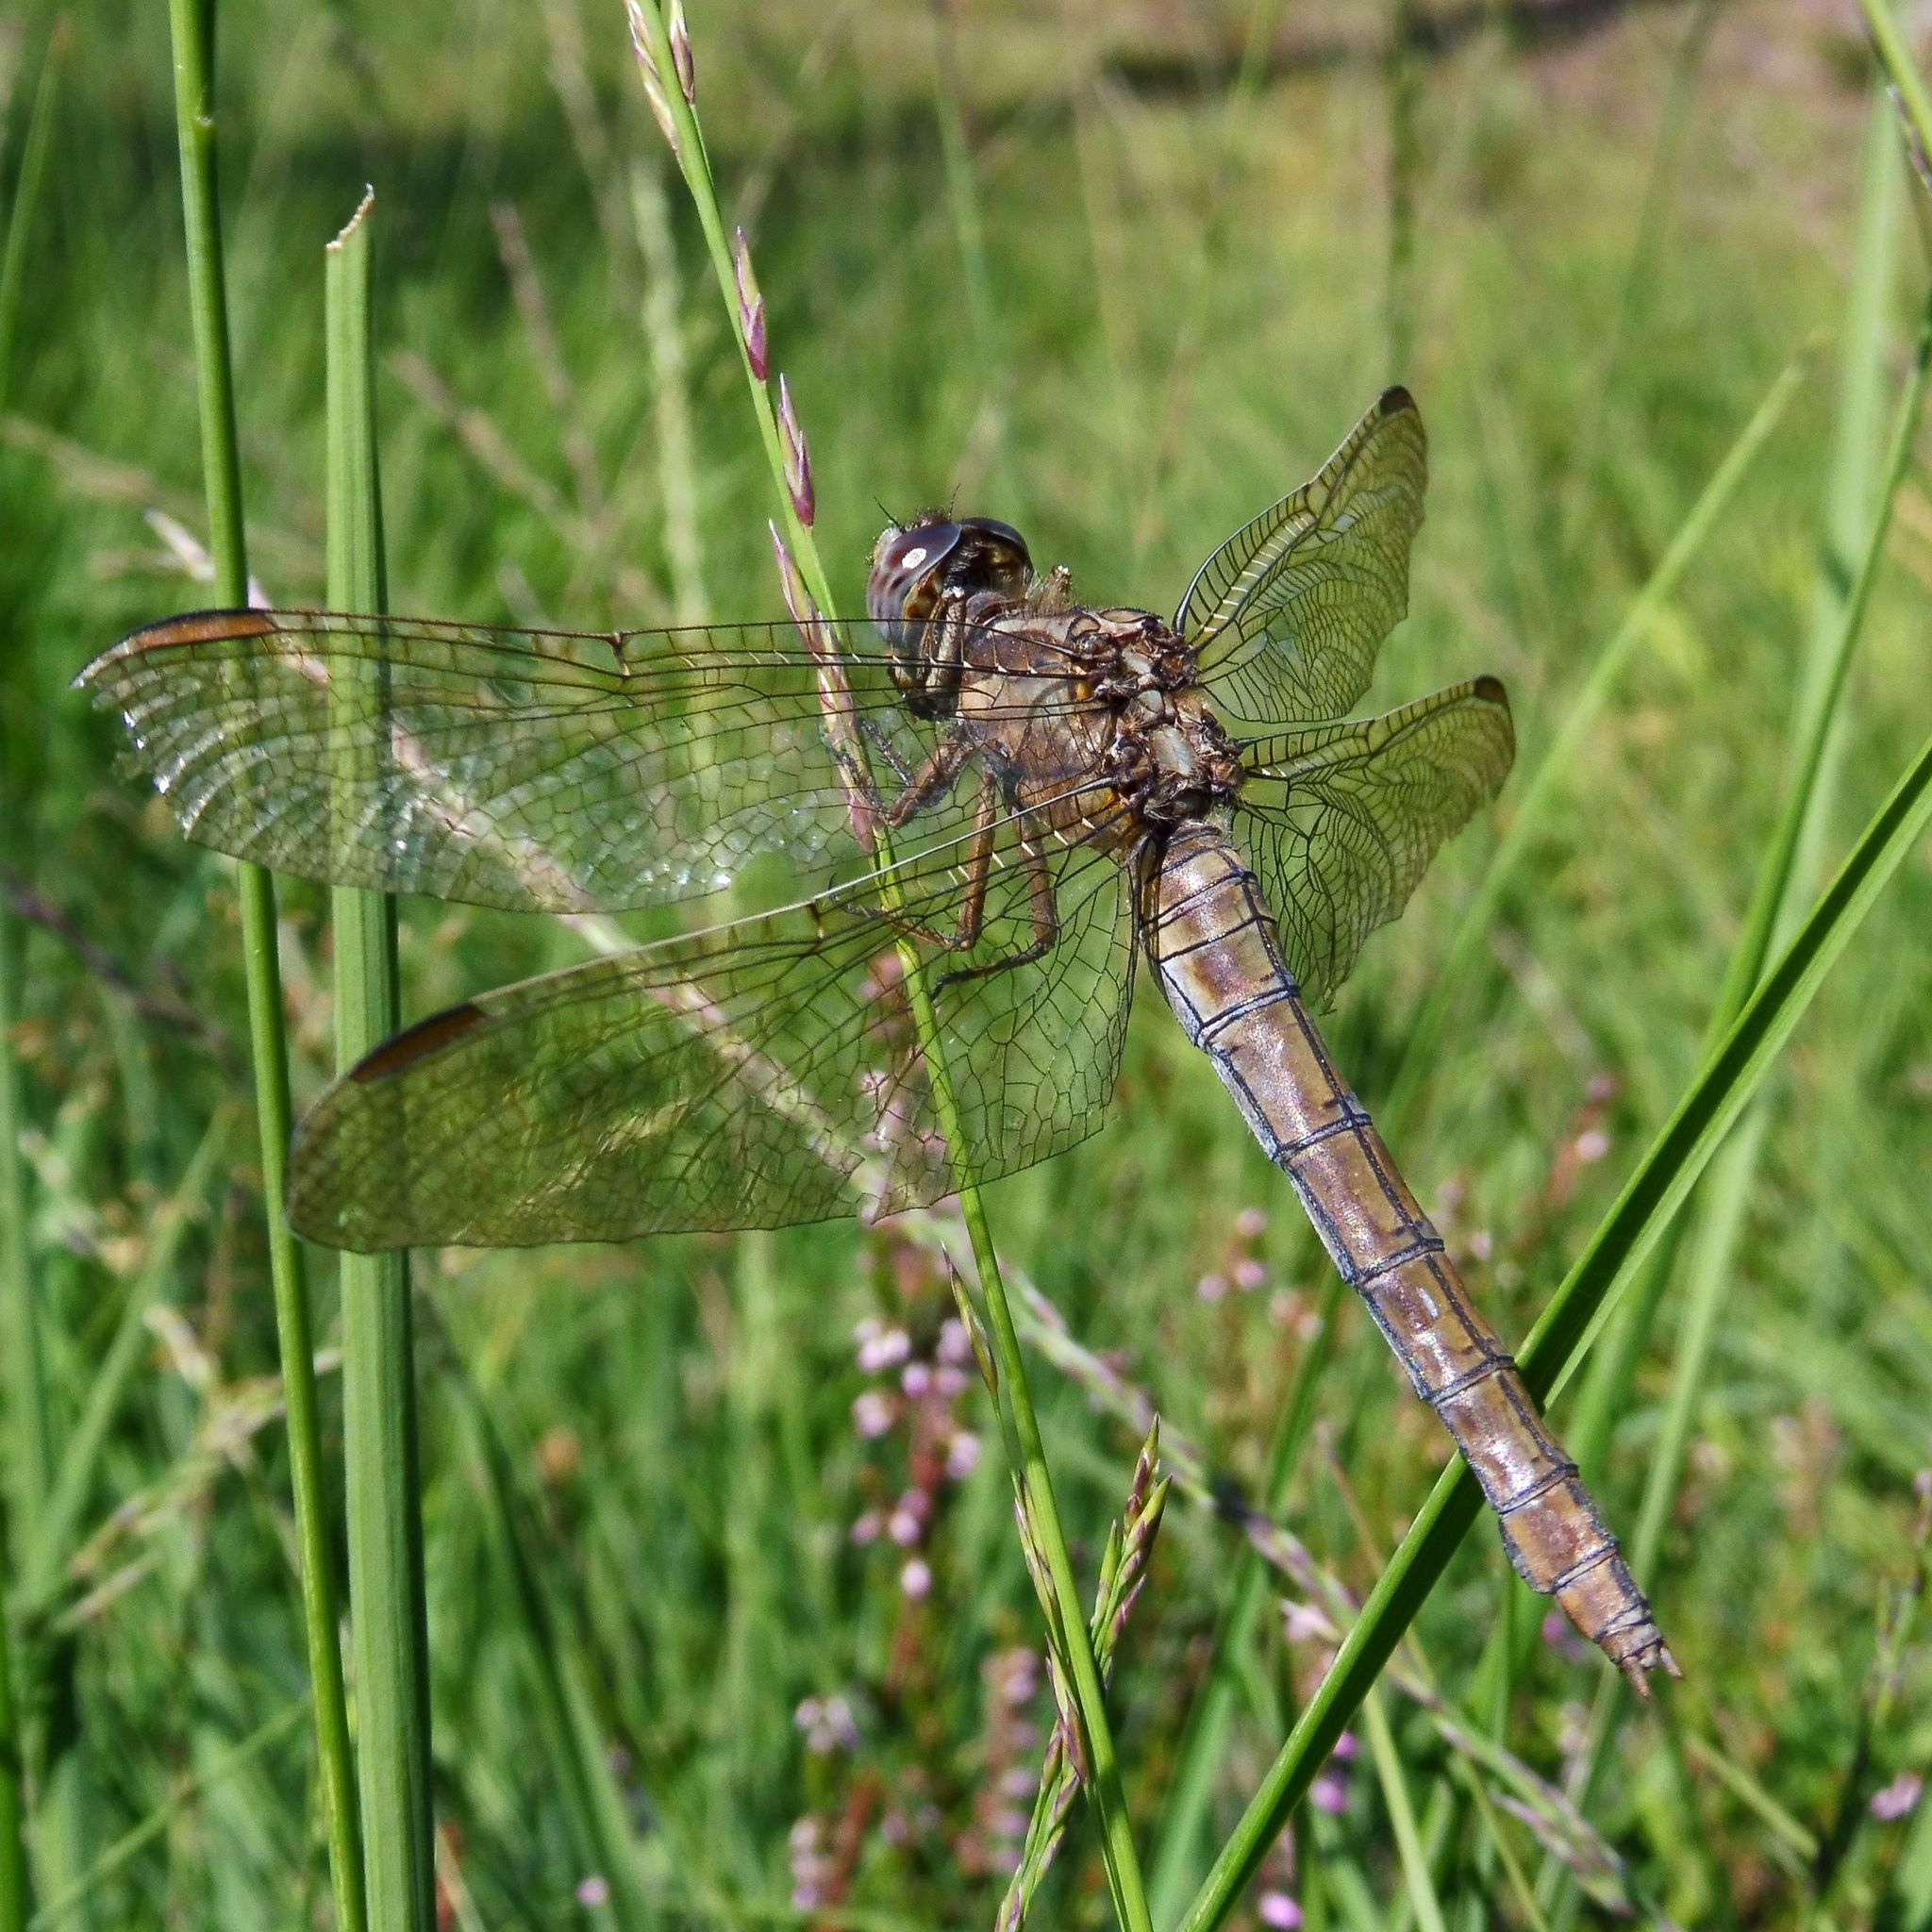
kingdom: Animalia
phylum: Arthropoda
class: Insecta
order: Odonata
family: Libellulidae
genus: Orthetrum
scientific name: Orthetrum coerulescens
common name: Keeled skimmer
